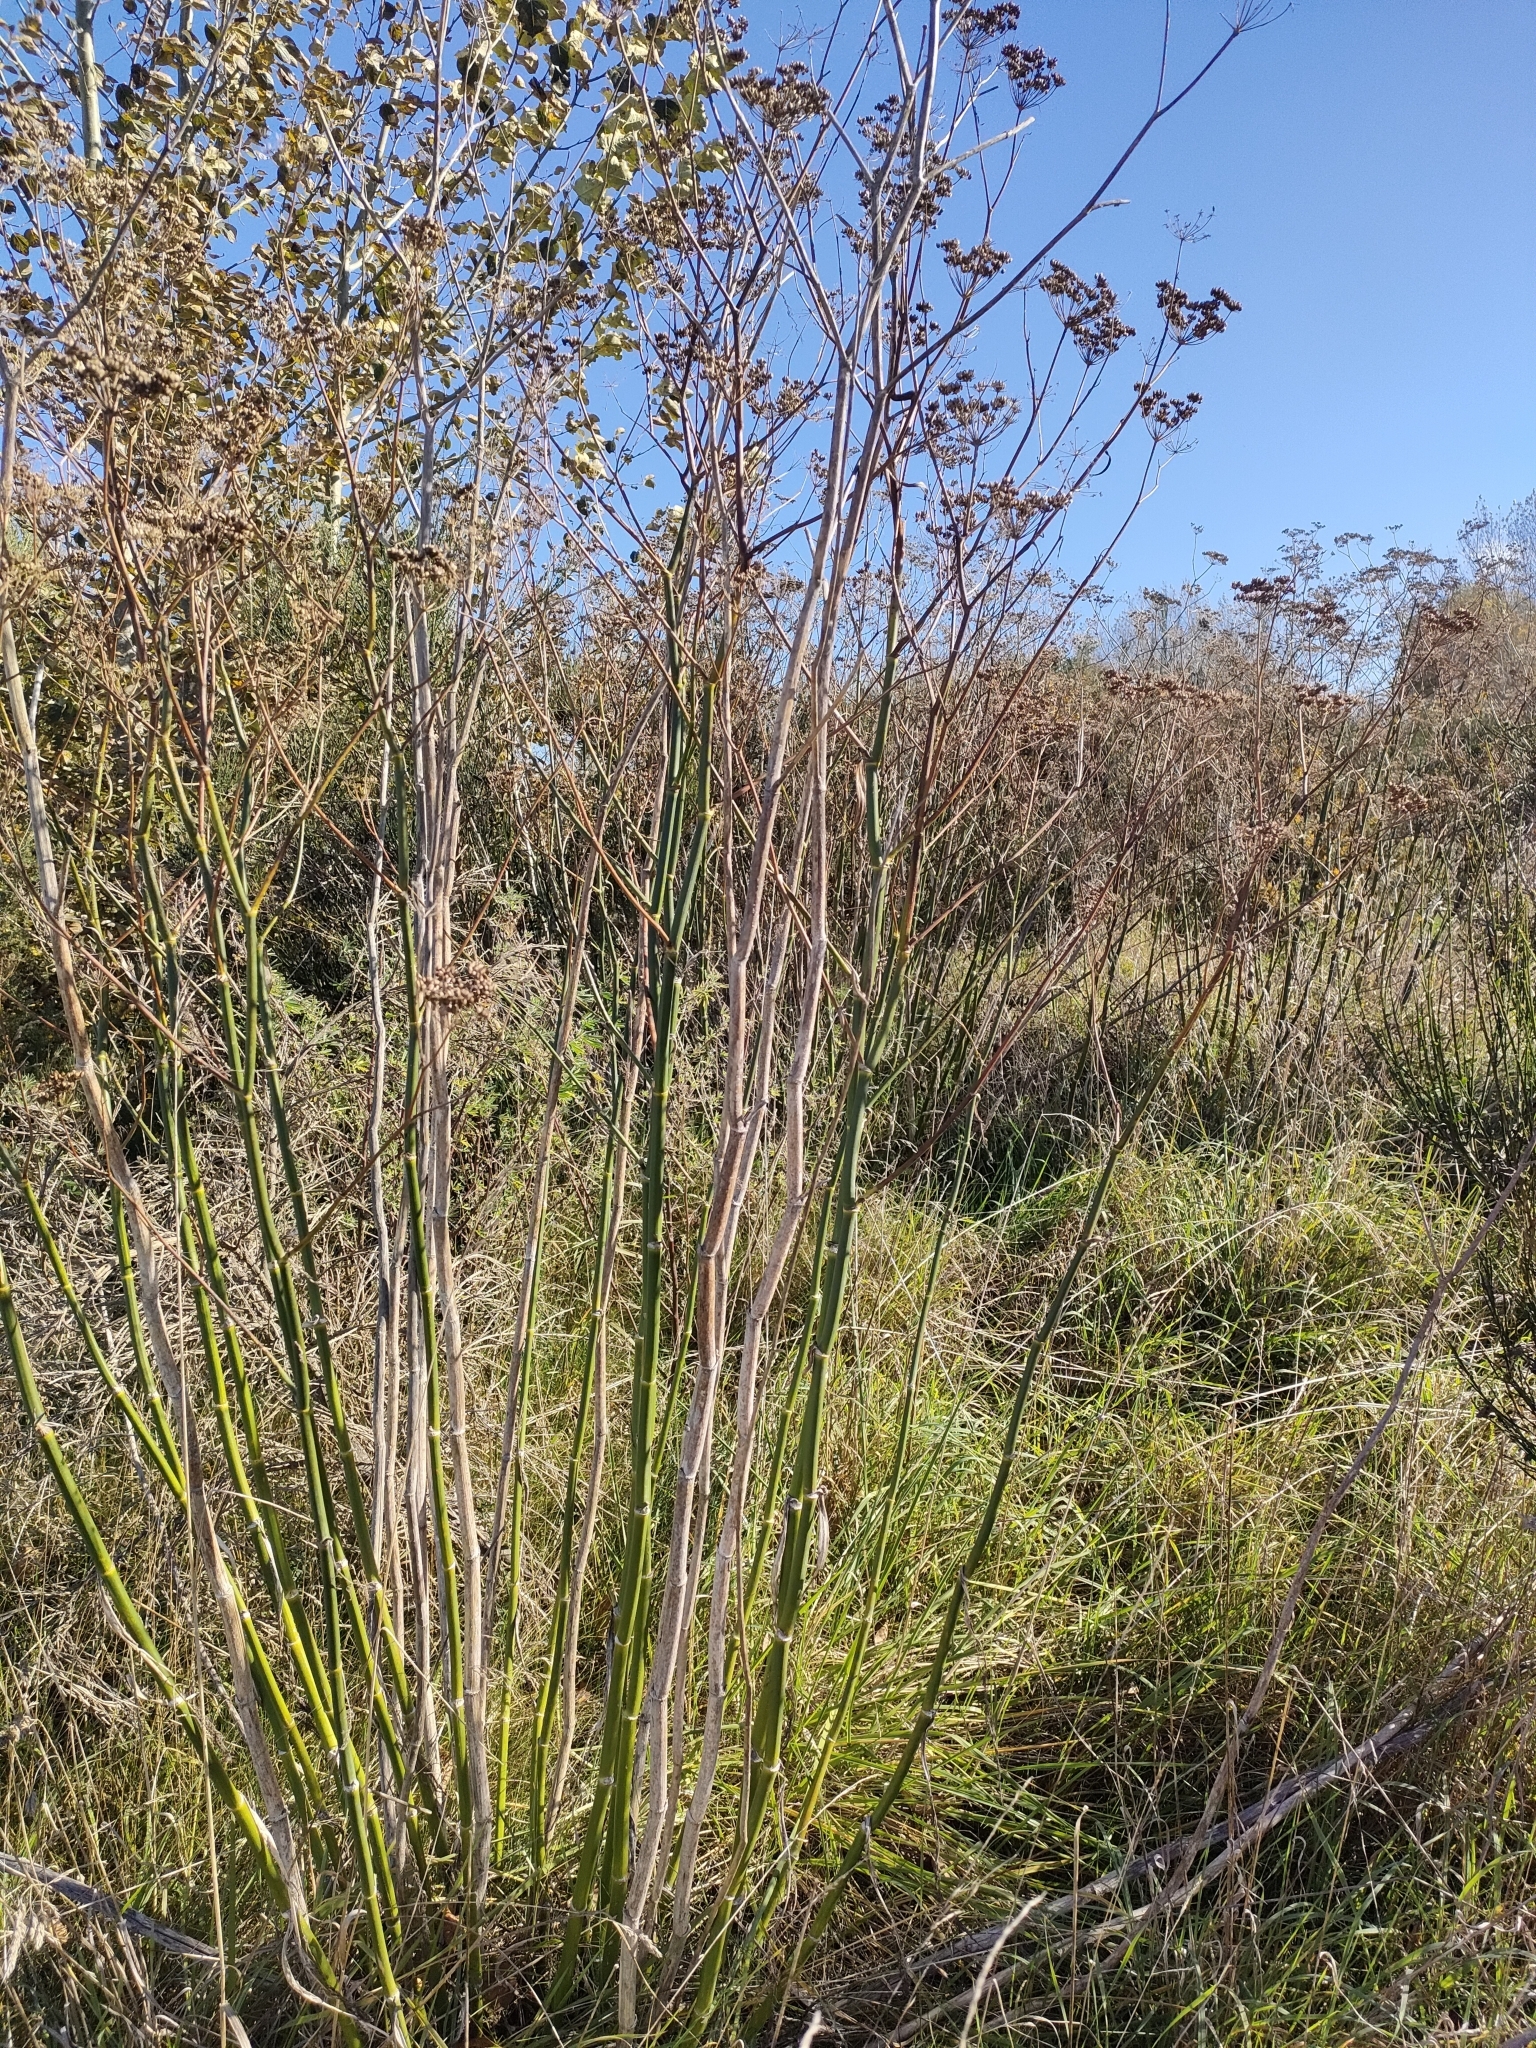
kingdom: Plantae
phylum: Tracheophyta
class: Magnoliopsida
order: Apiales
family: Apiaceae
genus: Foeniculum
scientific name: Foeniculum vulgare
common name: Fennel
